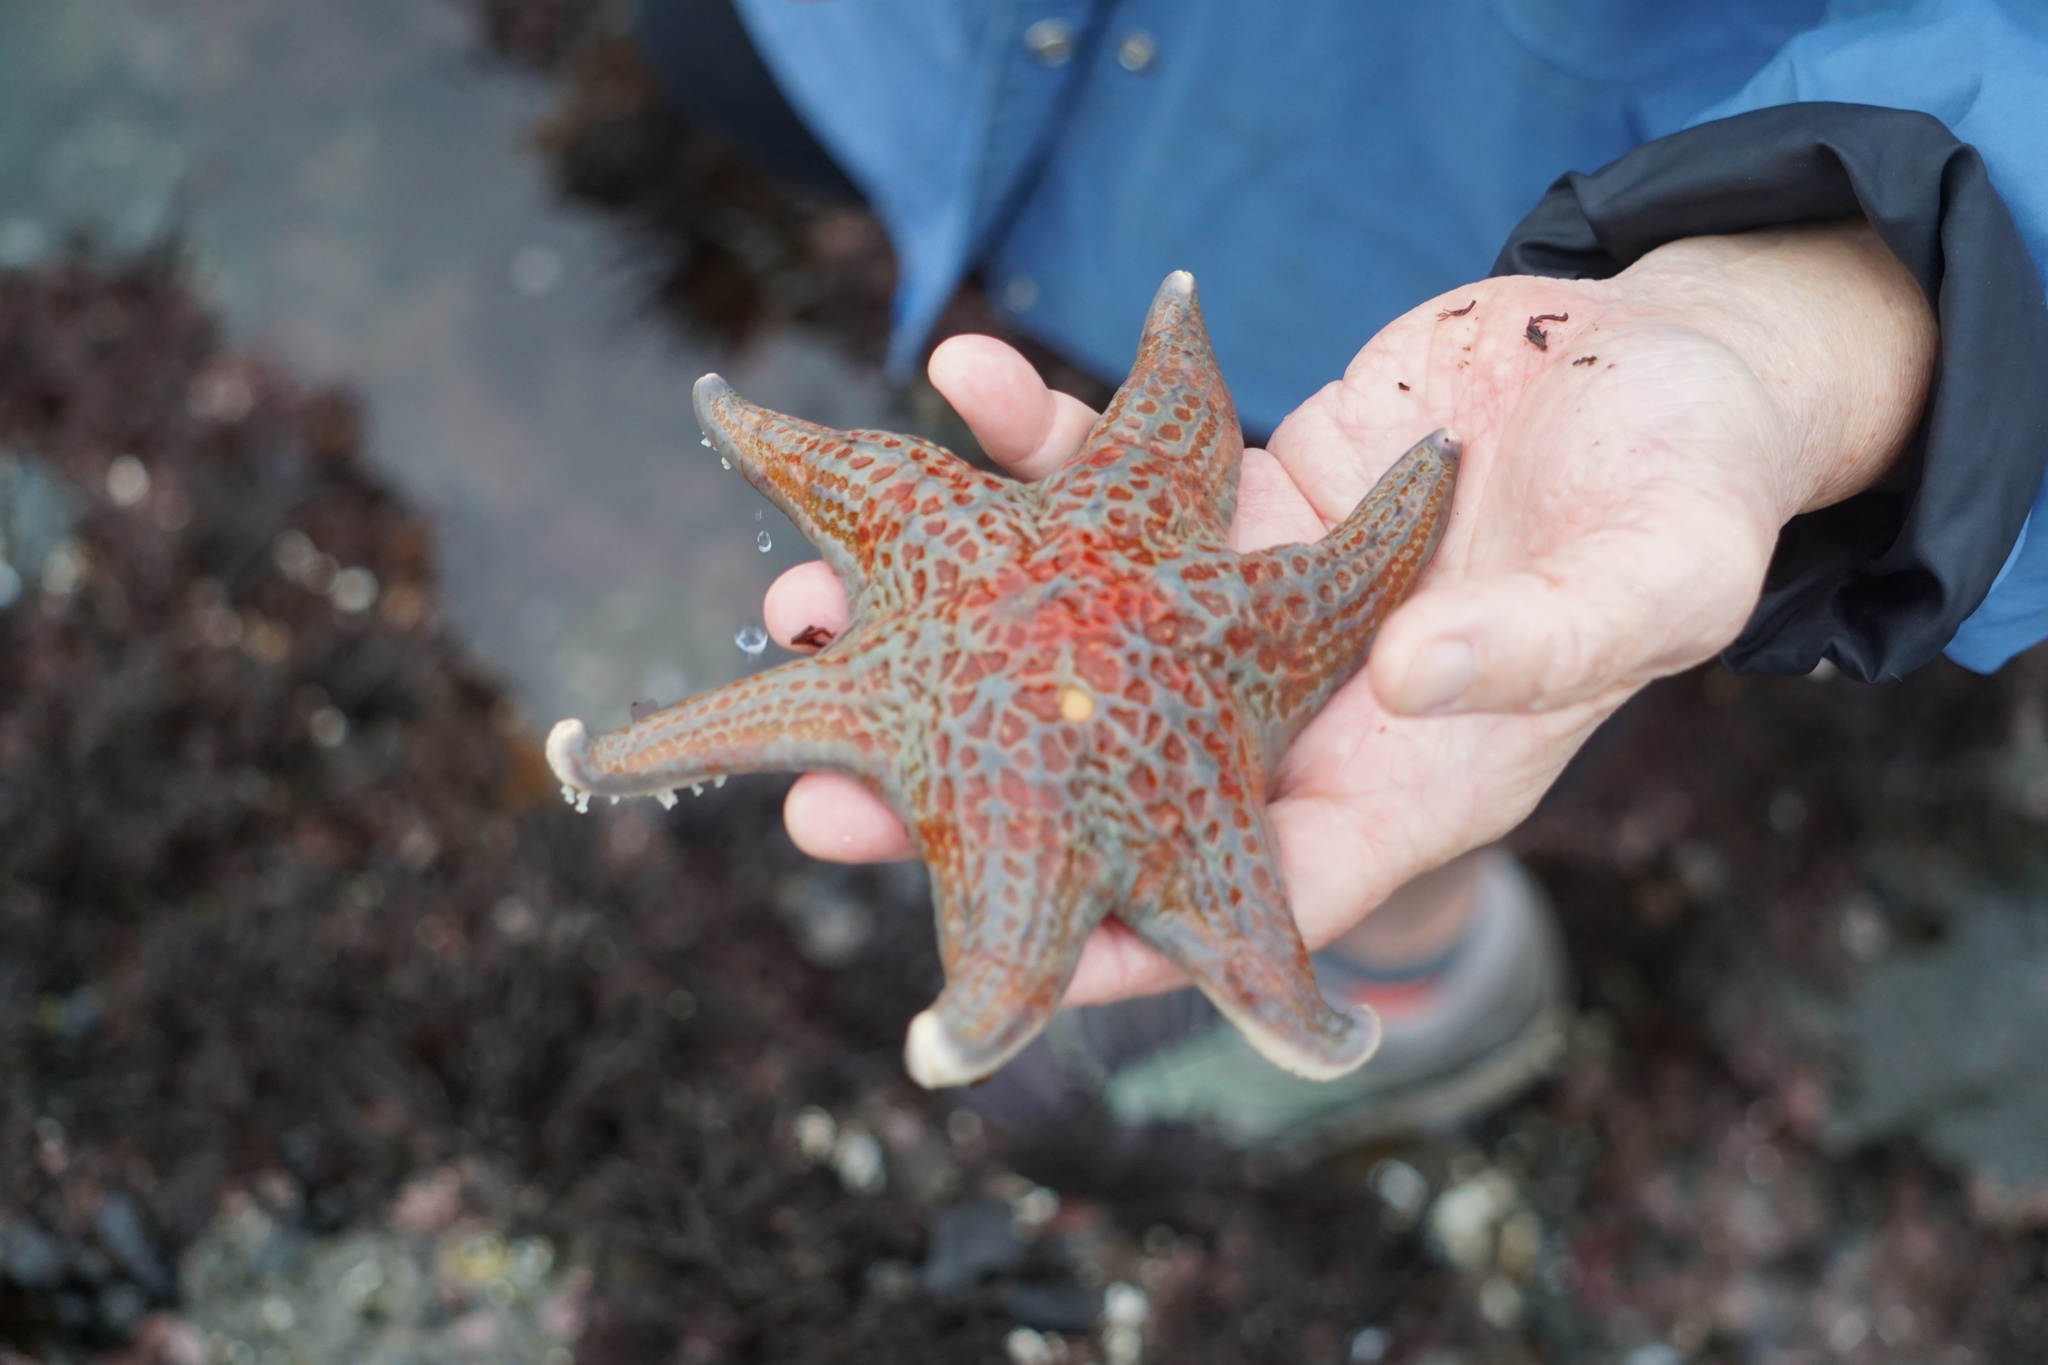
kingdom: Animalia
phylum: Echinodermata
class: Asteroidea
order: Valvatida
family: Asteropseidae
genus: Dermasterias
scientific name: Dermasterias imbricata
